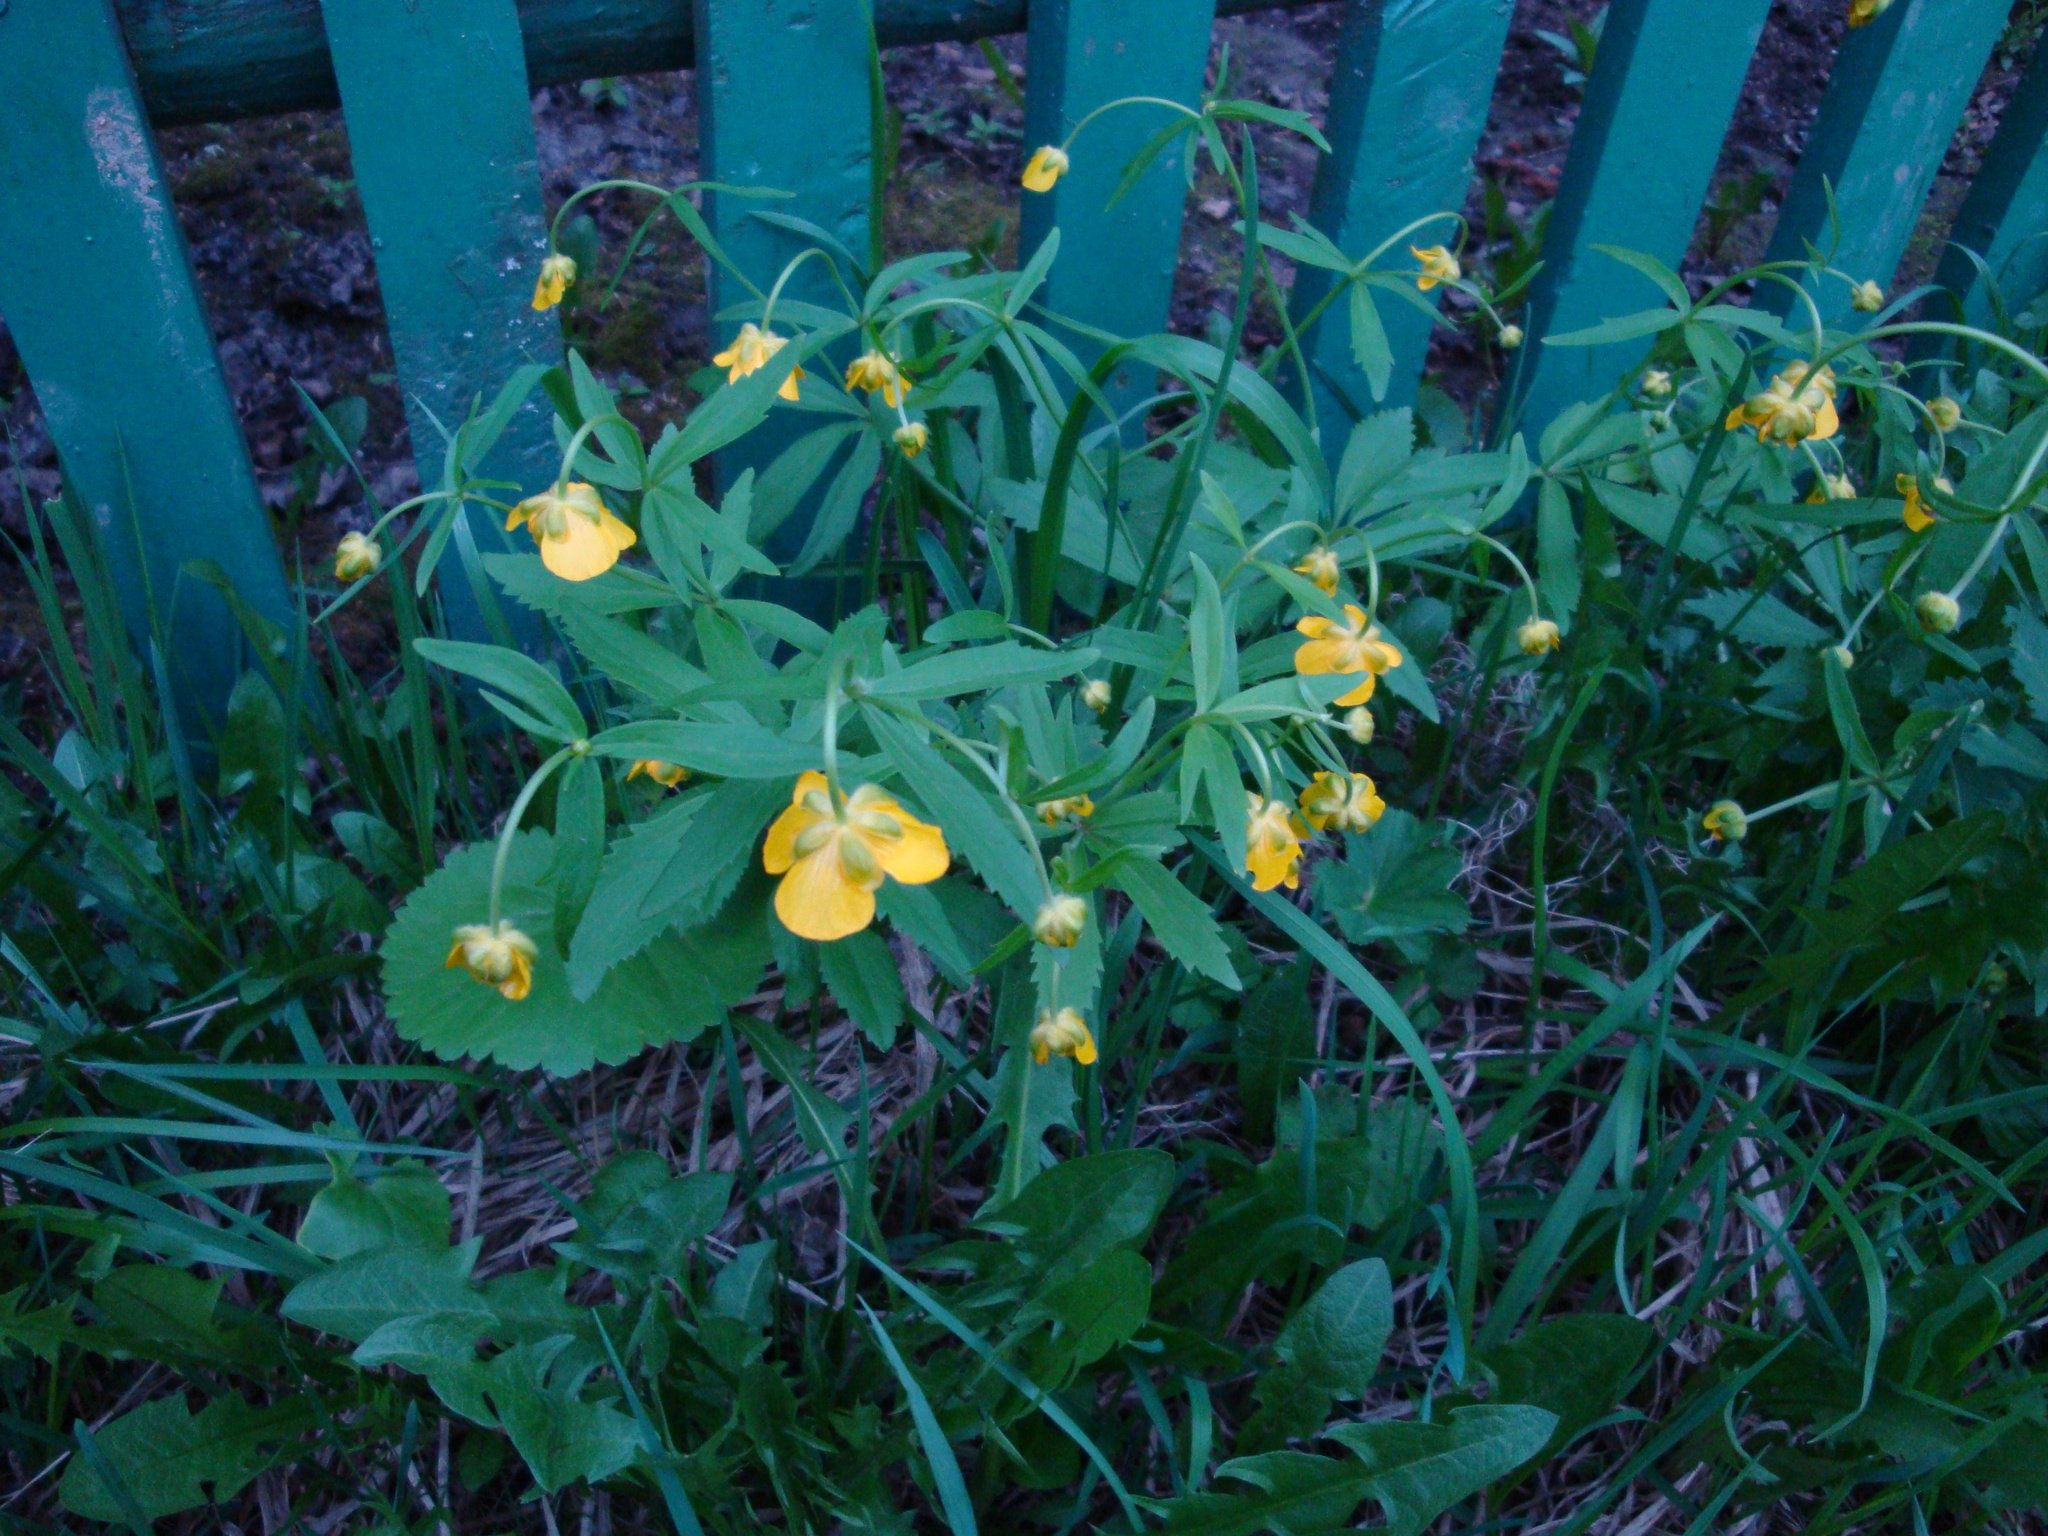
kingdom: Plantae
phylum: Tracheophyta
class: Magnoliopsida
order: Ranunculales
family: Ranunculaceae
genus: Ranunculus
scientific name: Ranunculus cassubicus
